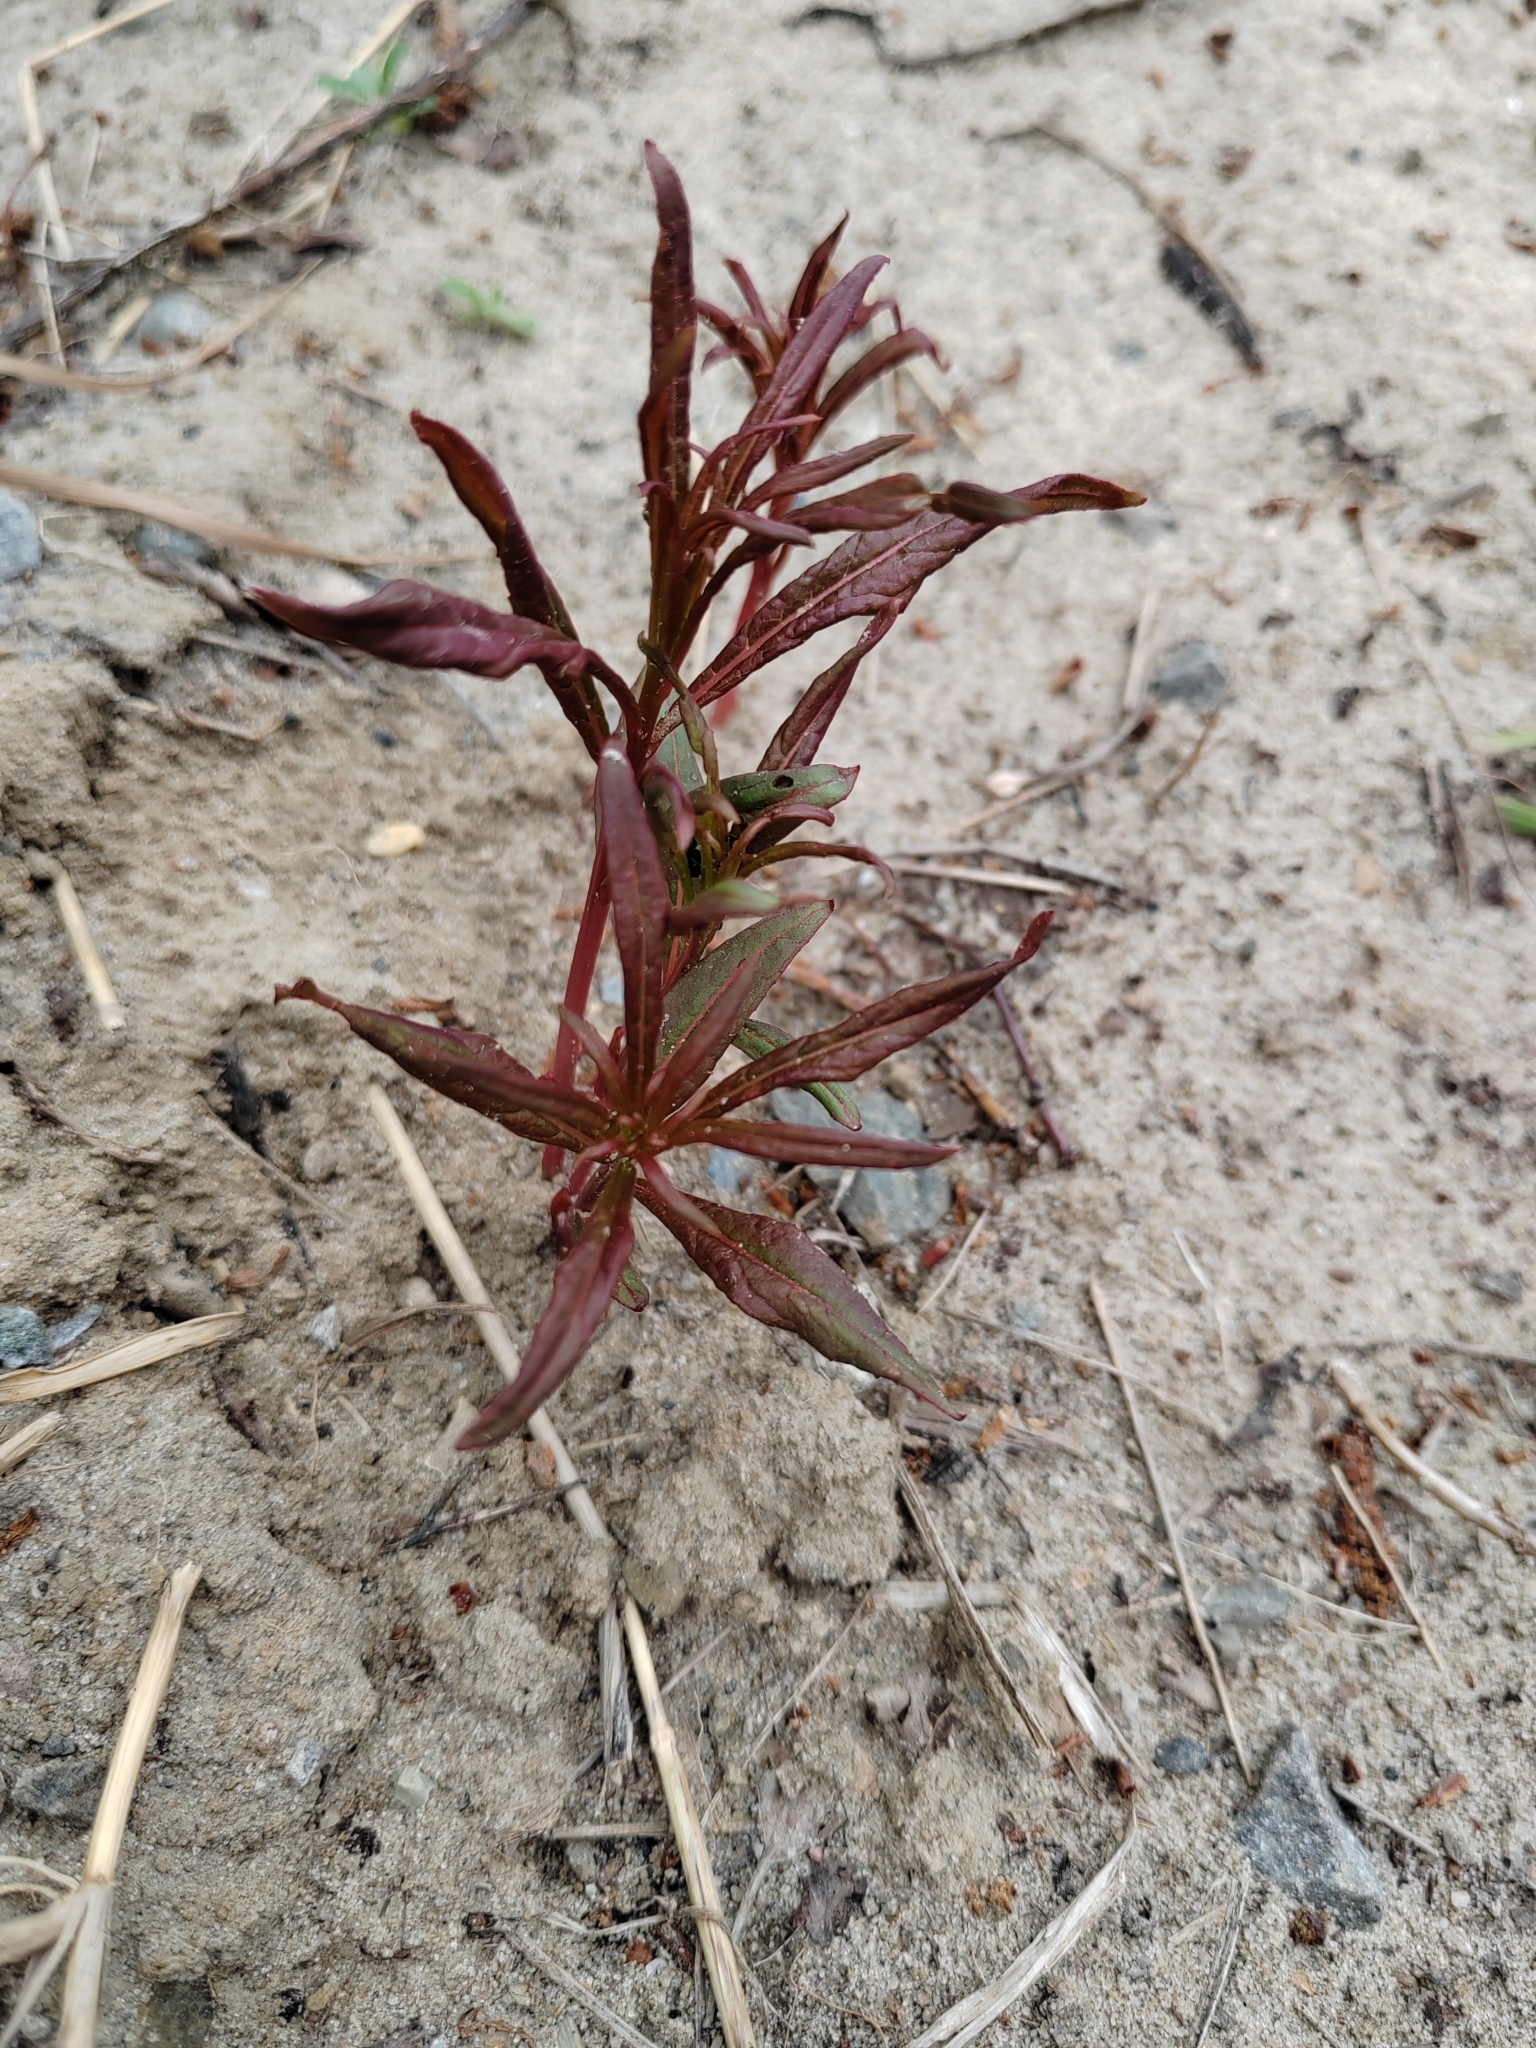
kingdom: Plantae
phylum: Tracheophyta
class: Magnoliopsida
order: Myrtales
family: Onagraceae
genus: Chamaenerion
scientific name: Chamaenerion angustifolium
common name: Fireweed
